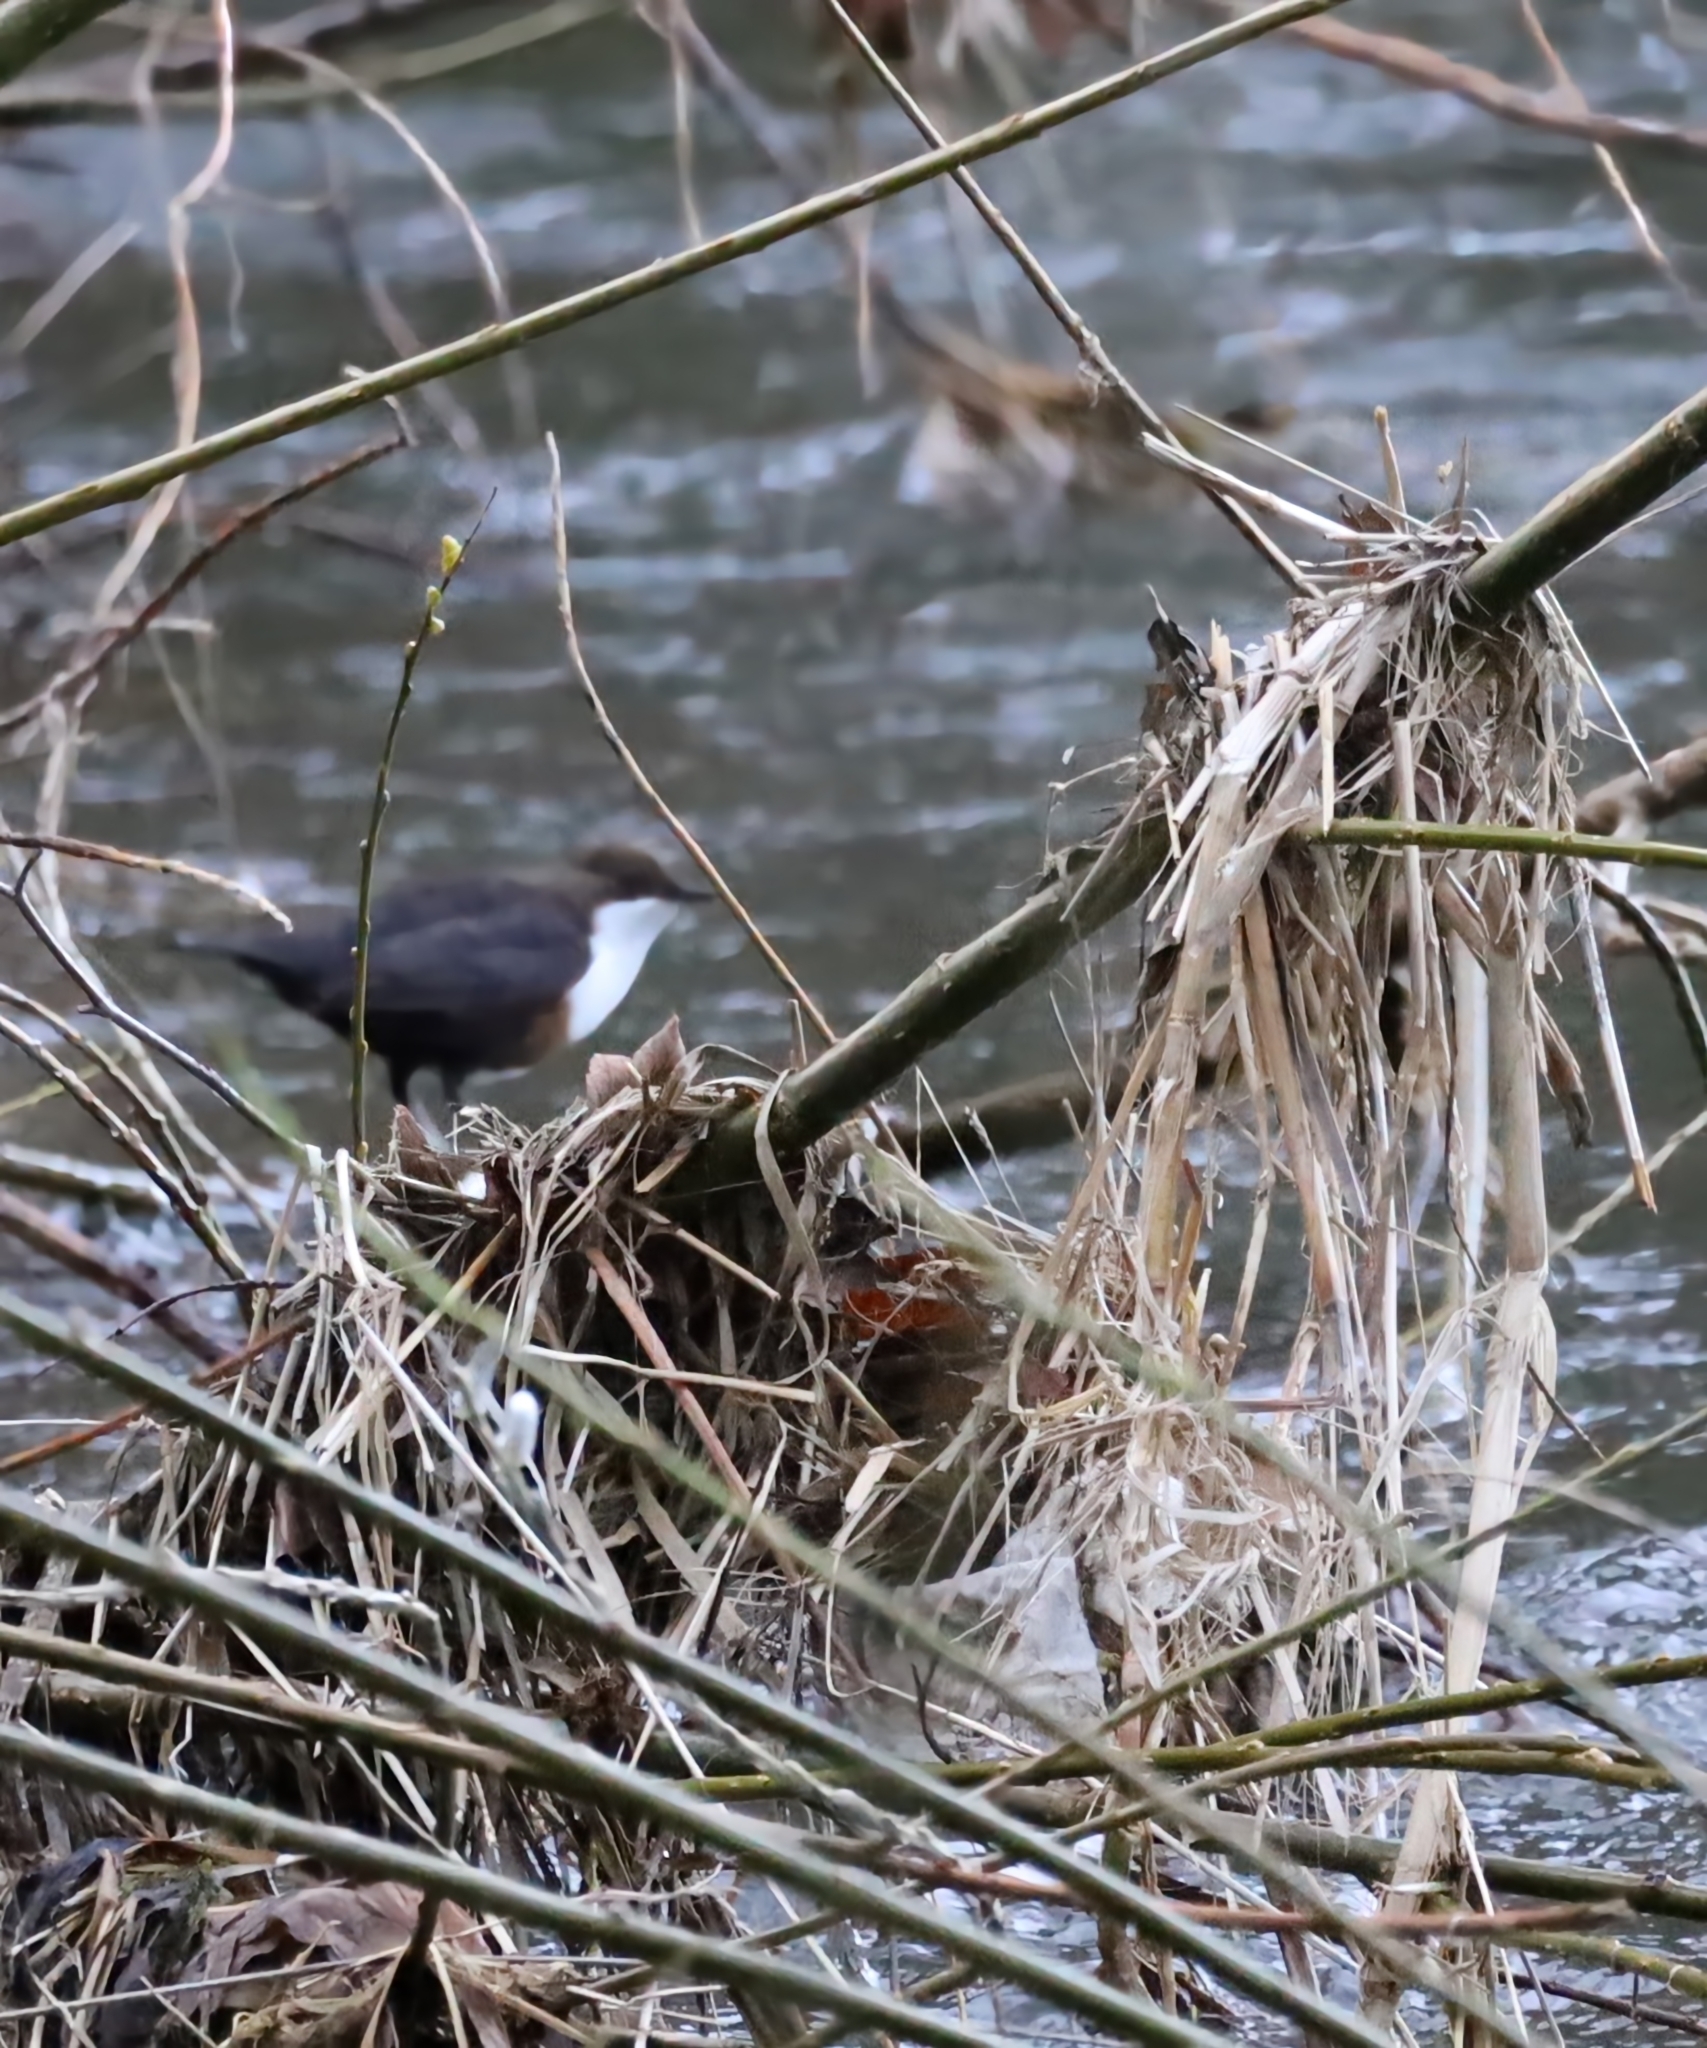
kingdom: Animalia
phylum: Chordata
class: Aves
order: Passeriformes
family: Cinclidae
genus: Cinclus
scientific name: Cinclus cinclus
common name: White-throated dipper
